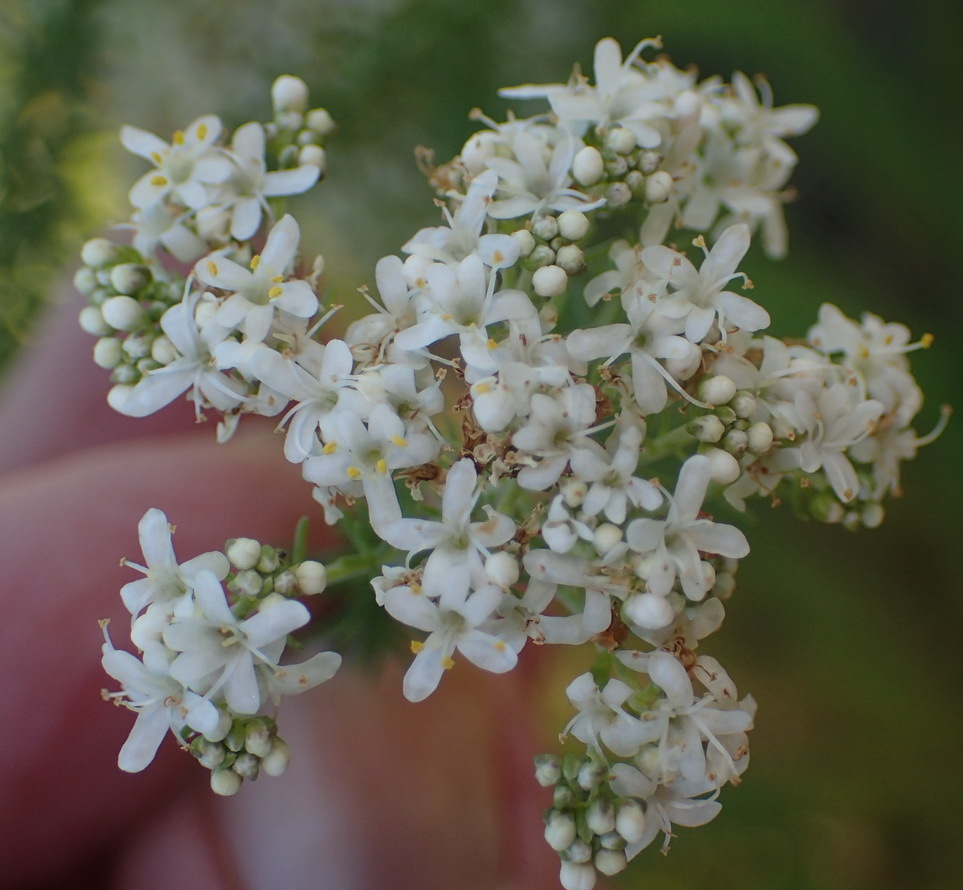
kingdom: Plantae
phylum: Tracheophyta
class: Magnoliopsida
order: Lamiales
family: Scrophulariaceae
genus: Selago
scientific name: Selago corymbosa
